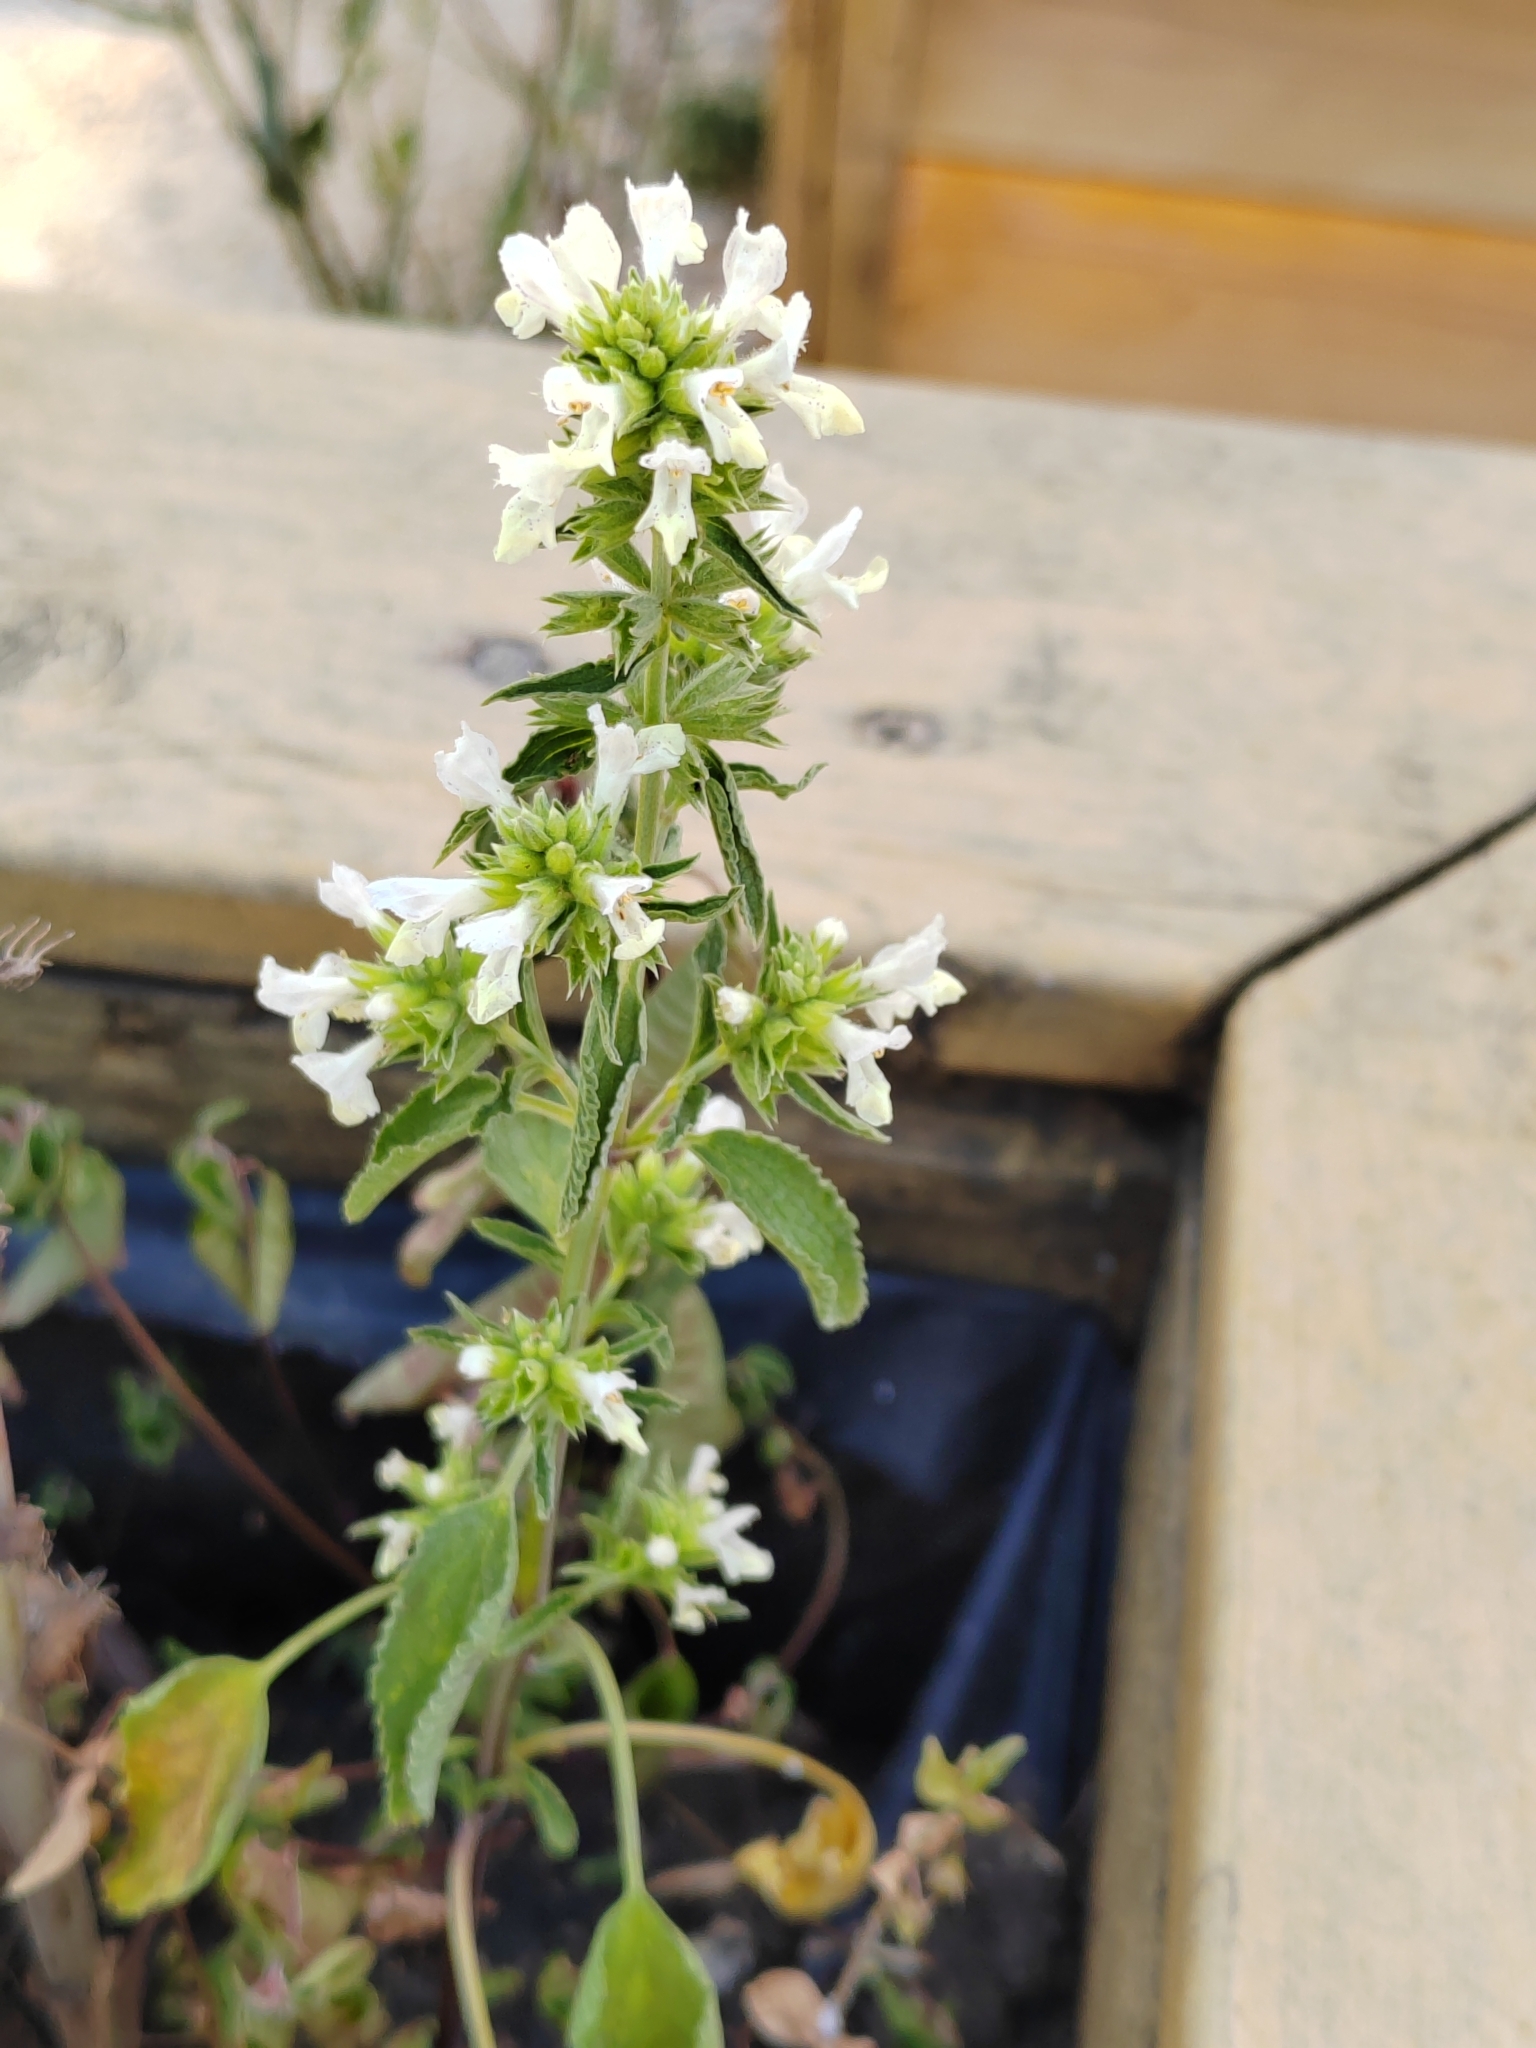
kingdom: Plantae
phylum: Tracheophyta
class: Magnoliopsida
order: Lamiales
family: Lamiaceae
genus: Stachys
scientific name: Stachys annua
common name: Annual yellow-woundwort
